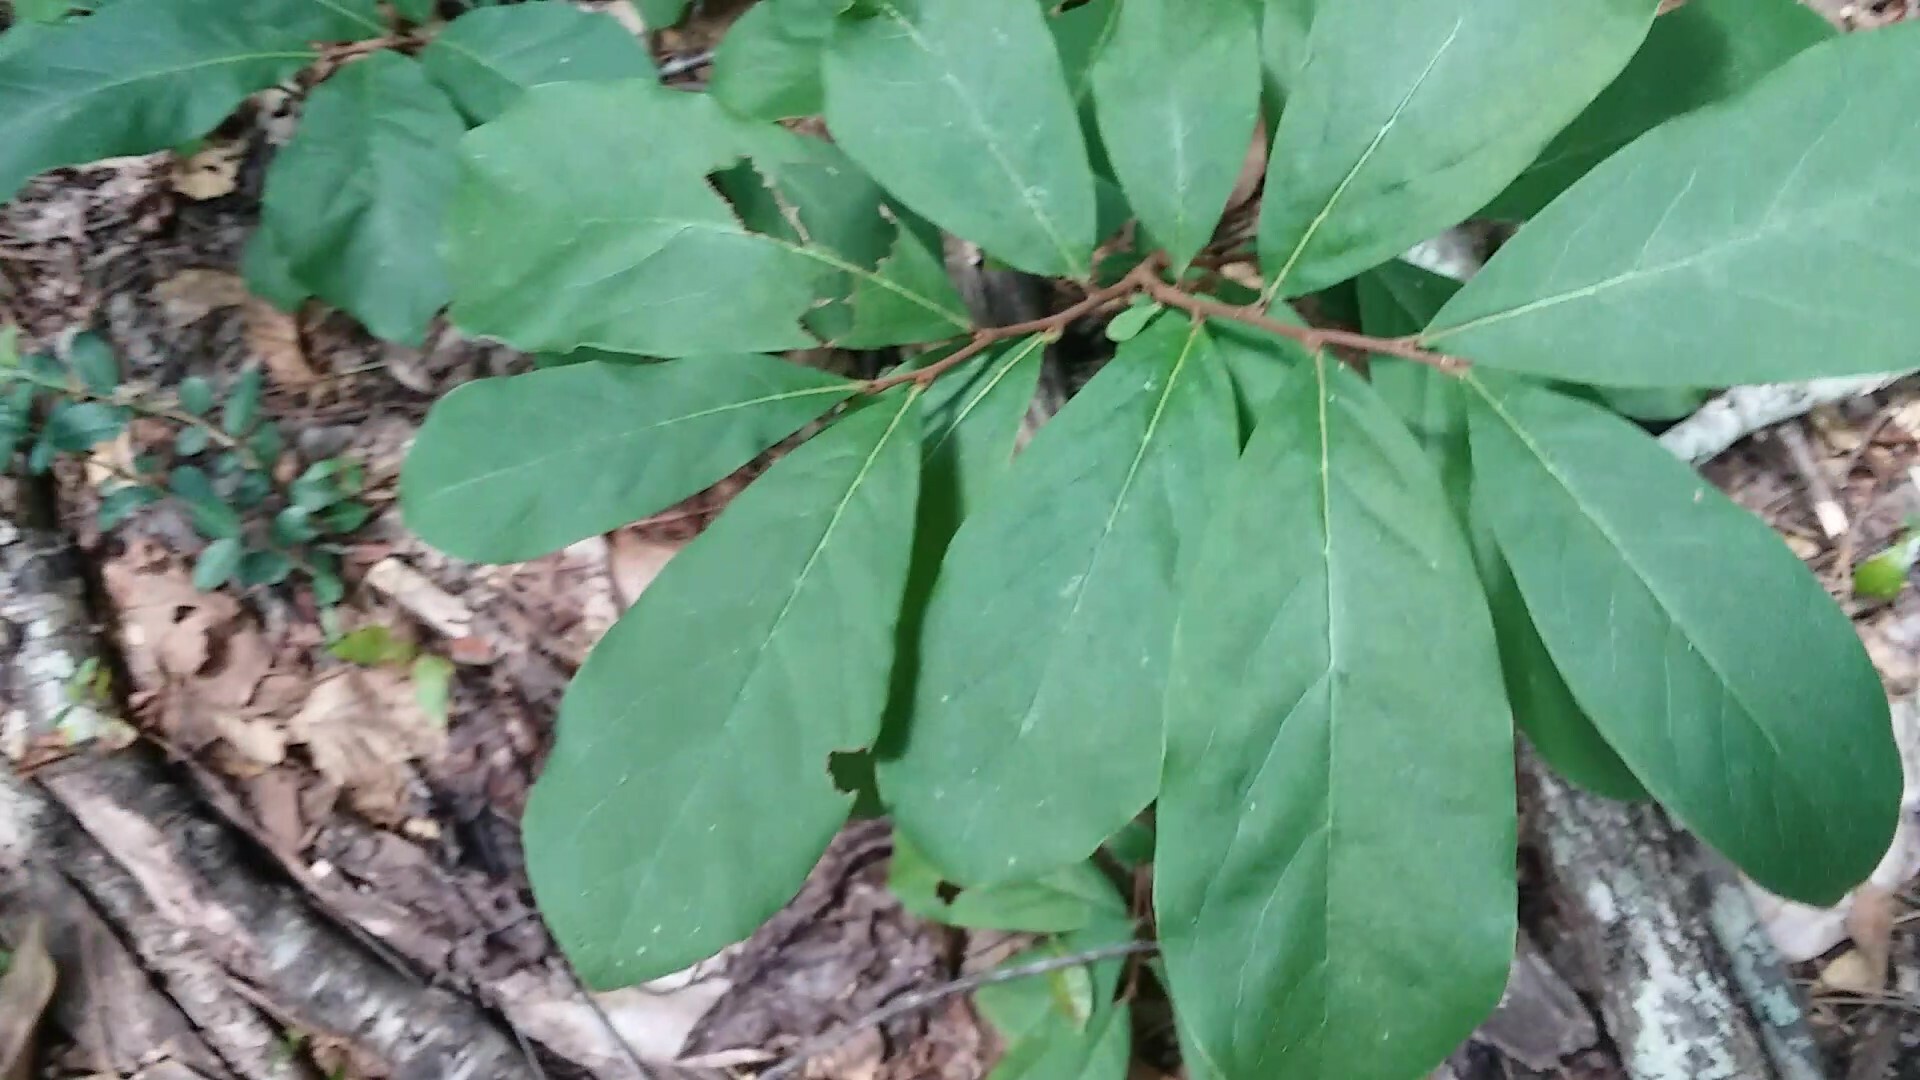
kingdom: Plantae
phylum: Tracheophyta
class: Magnoliopsida
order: Magnoliales
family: Annonaceae
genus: Asimina
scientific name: Asimina parviflora
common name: Dwarf pawpaw
